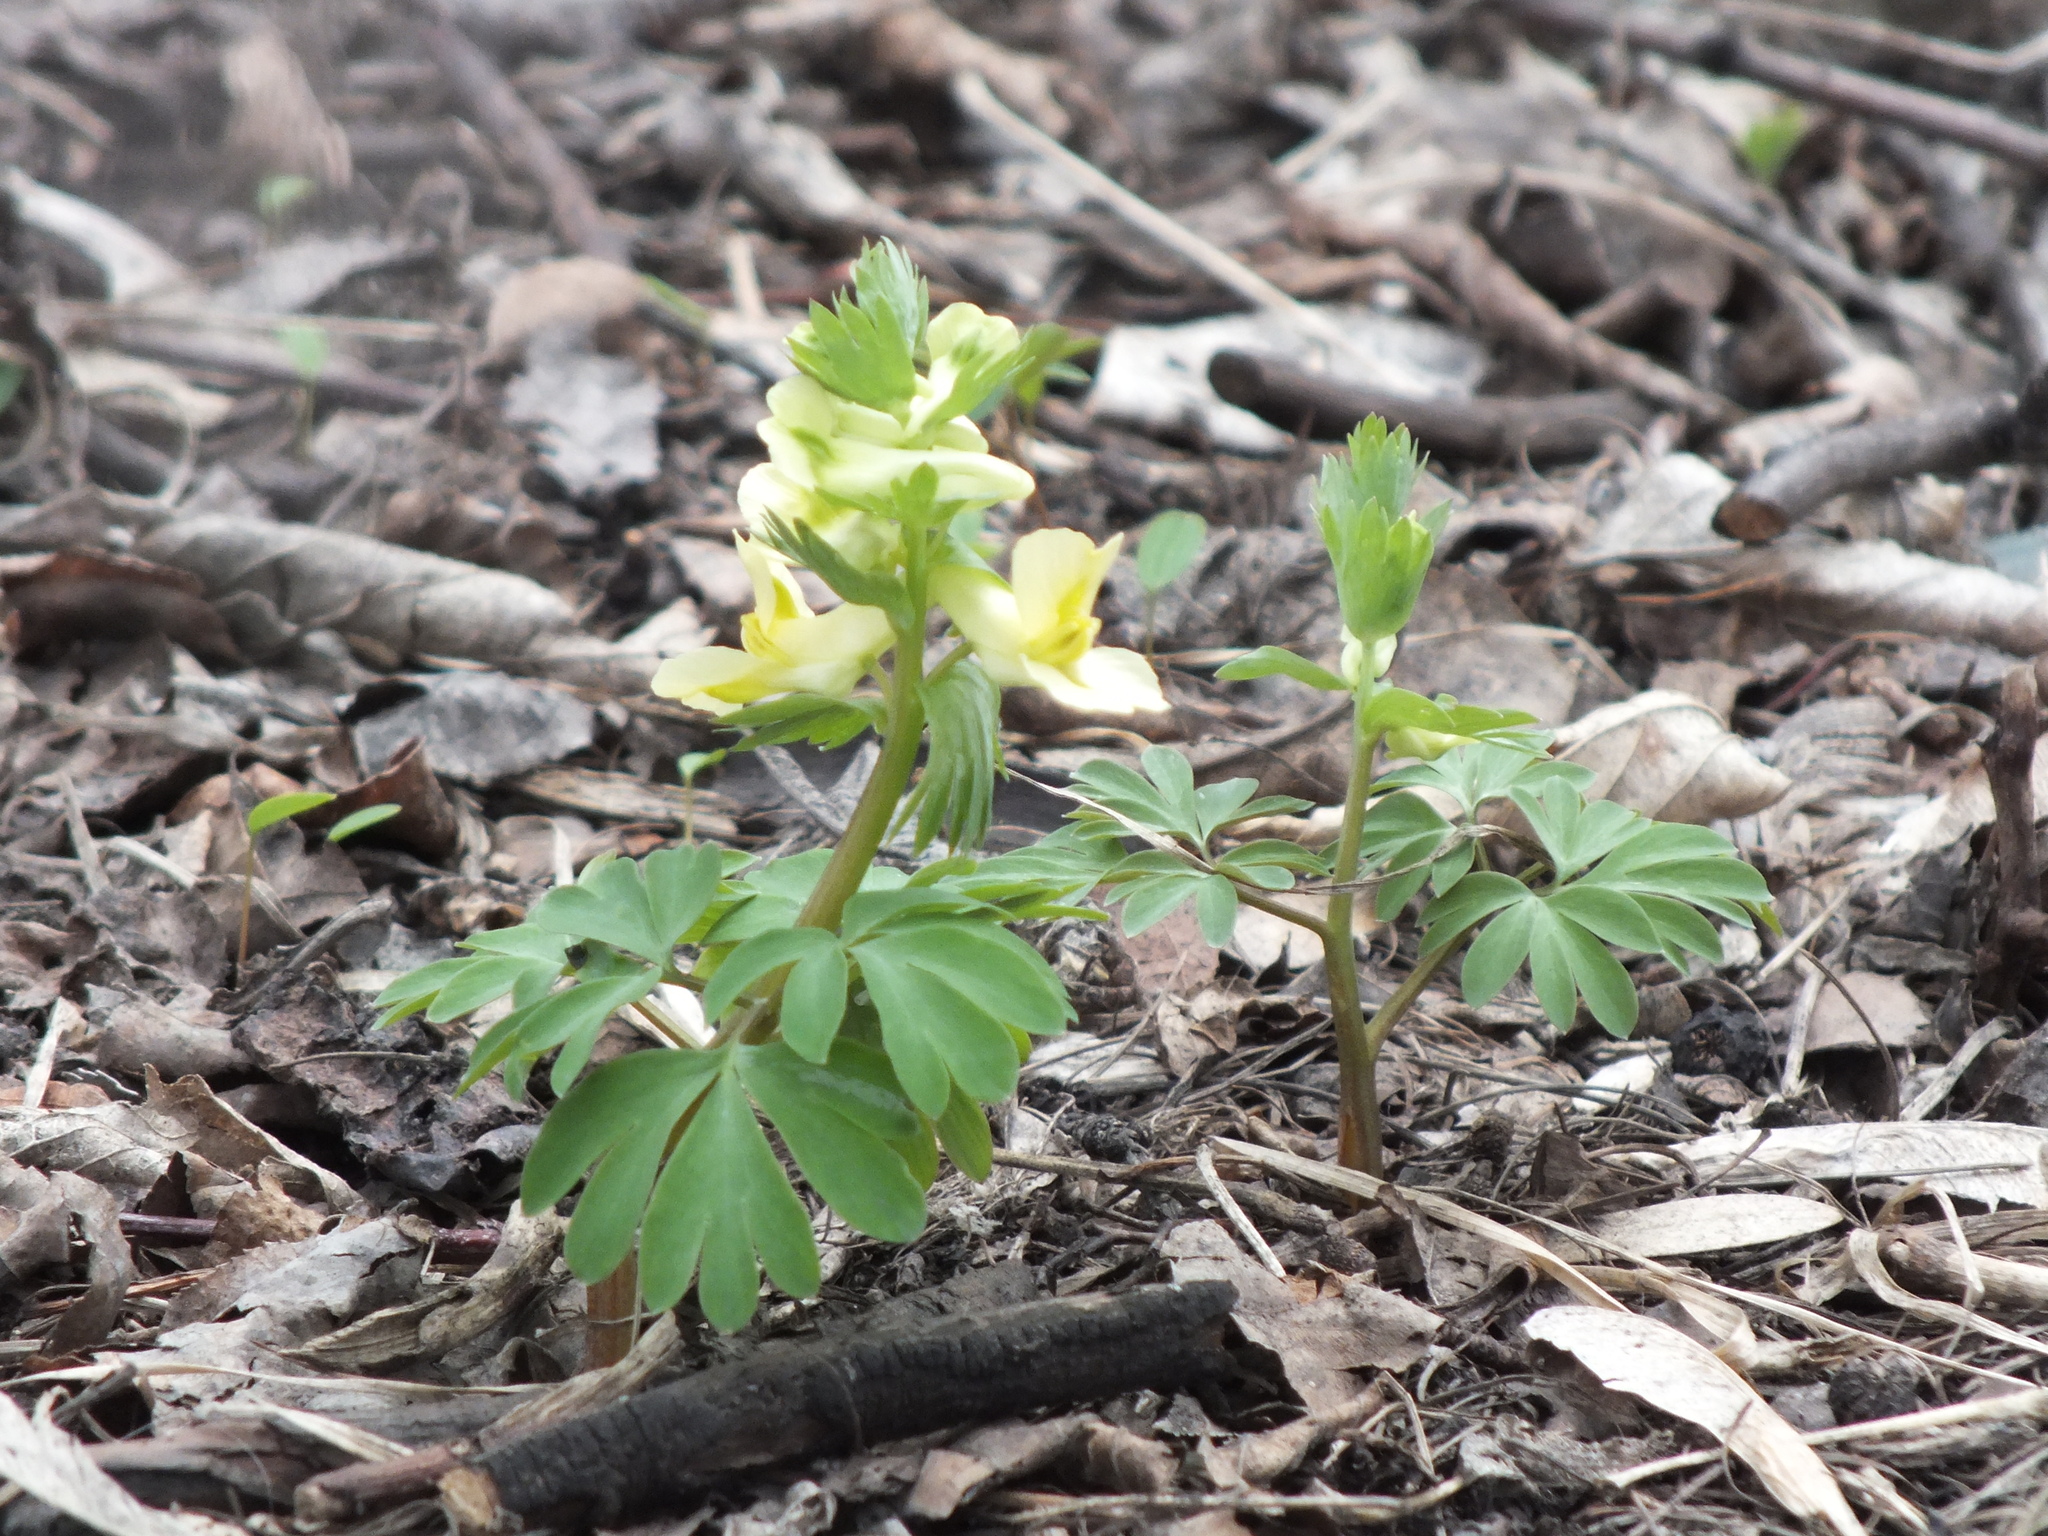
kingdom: Plantae
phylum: Tracheophyta
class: Magnoliopsida
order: Ranunculales
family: Papaveraceae
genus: Corydalis
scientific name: Corydalis bracteata
